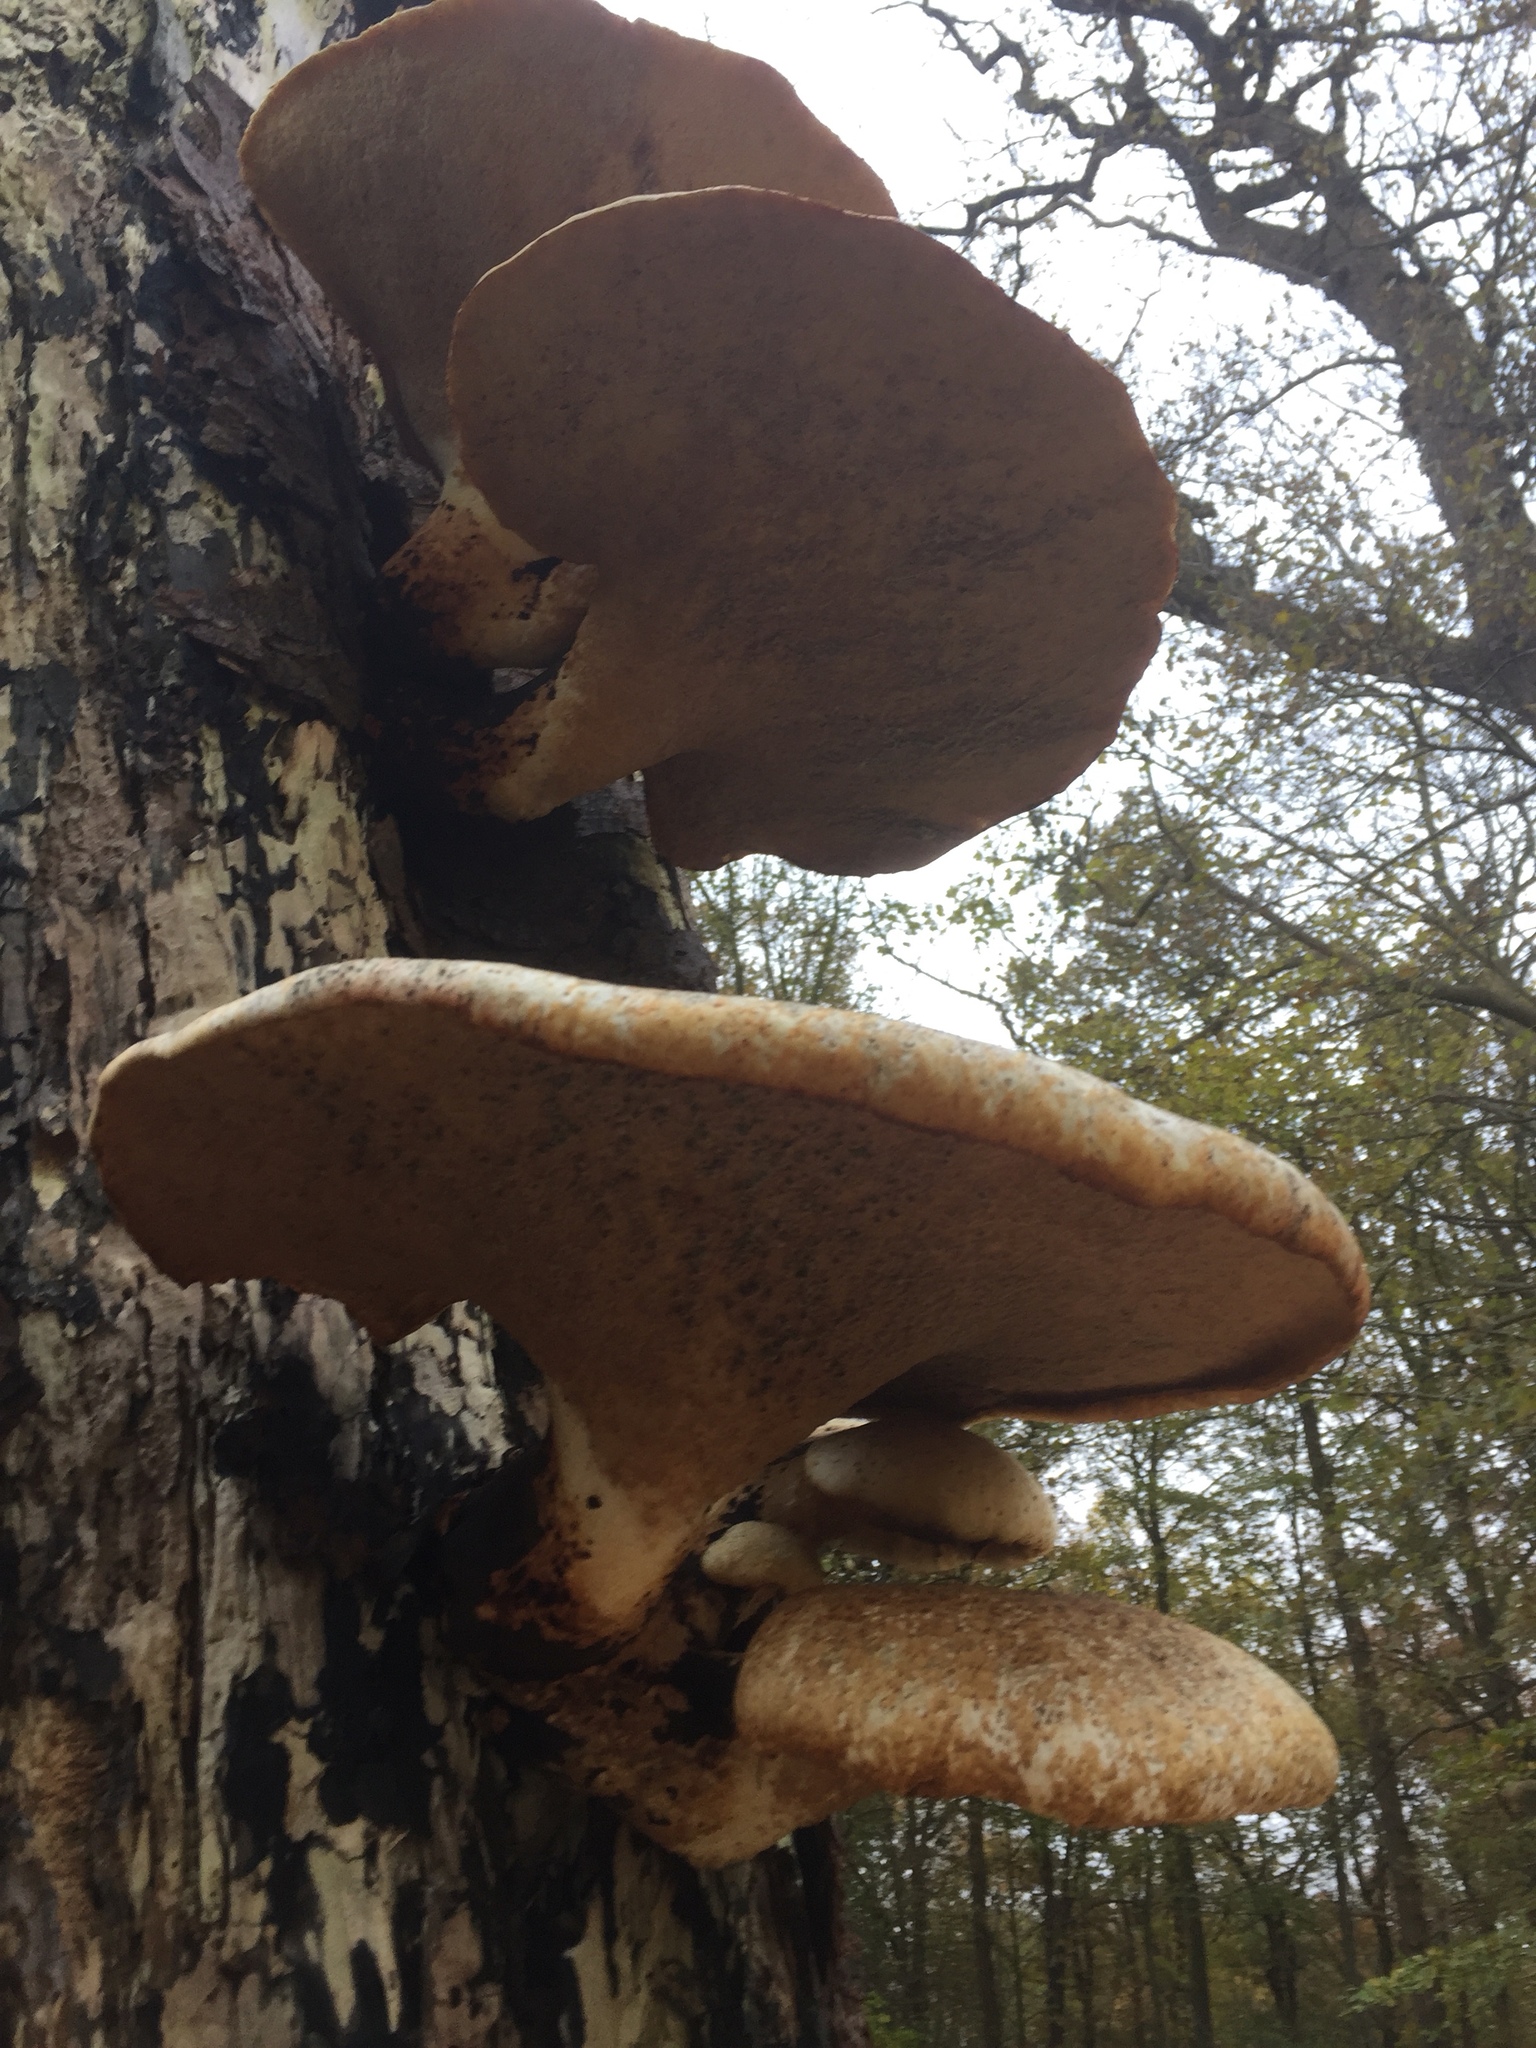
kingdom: Fungi
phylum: Basidiomycota
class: Agaricomycetes
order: Polyporales
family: Polyporaceae
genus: Cerioporus
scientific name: Cerioporus squamosus
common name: Dryad's saddle
